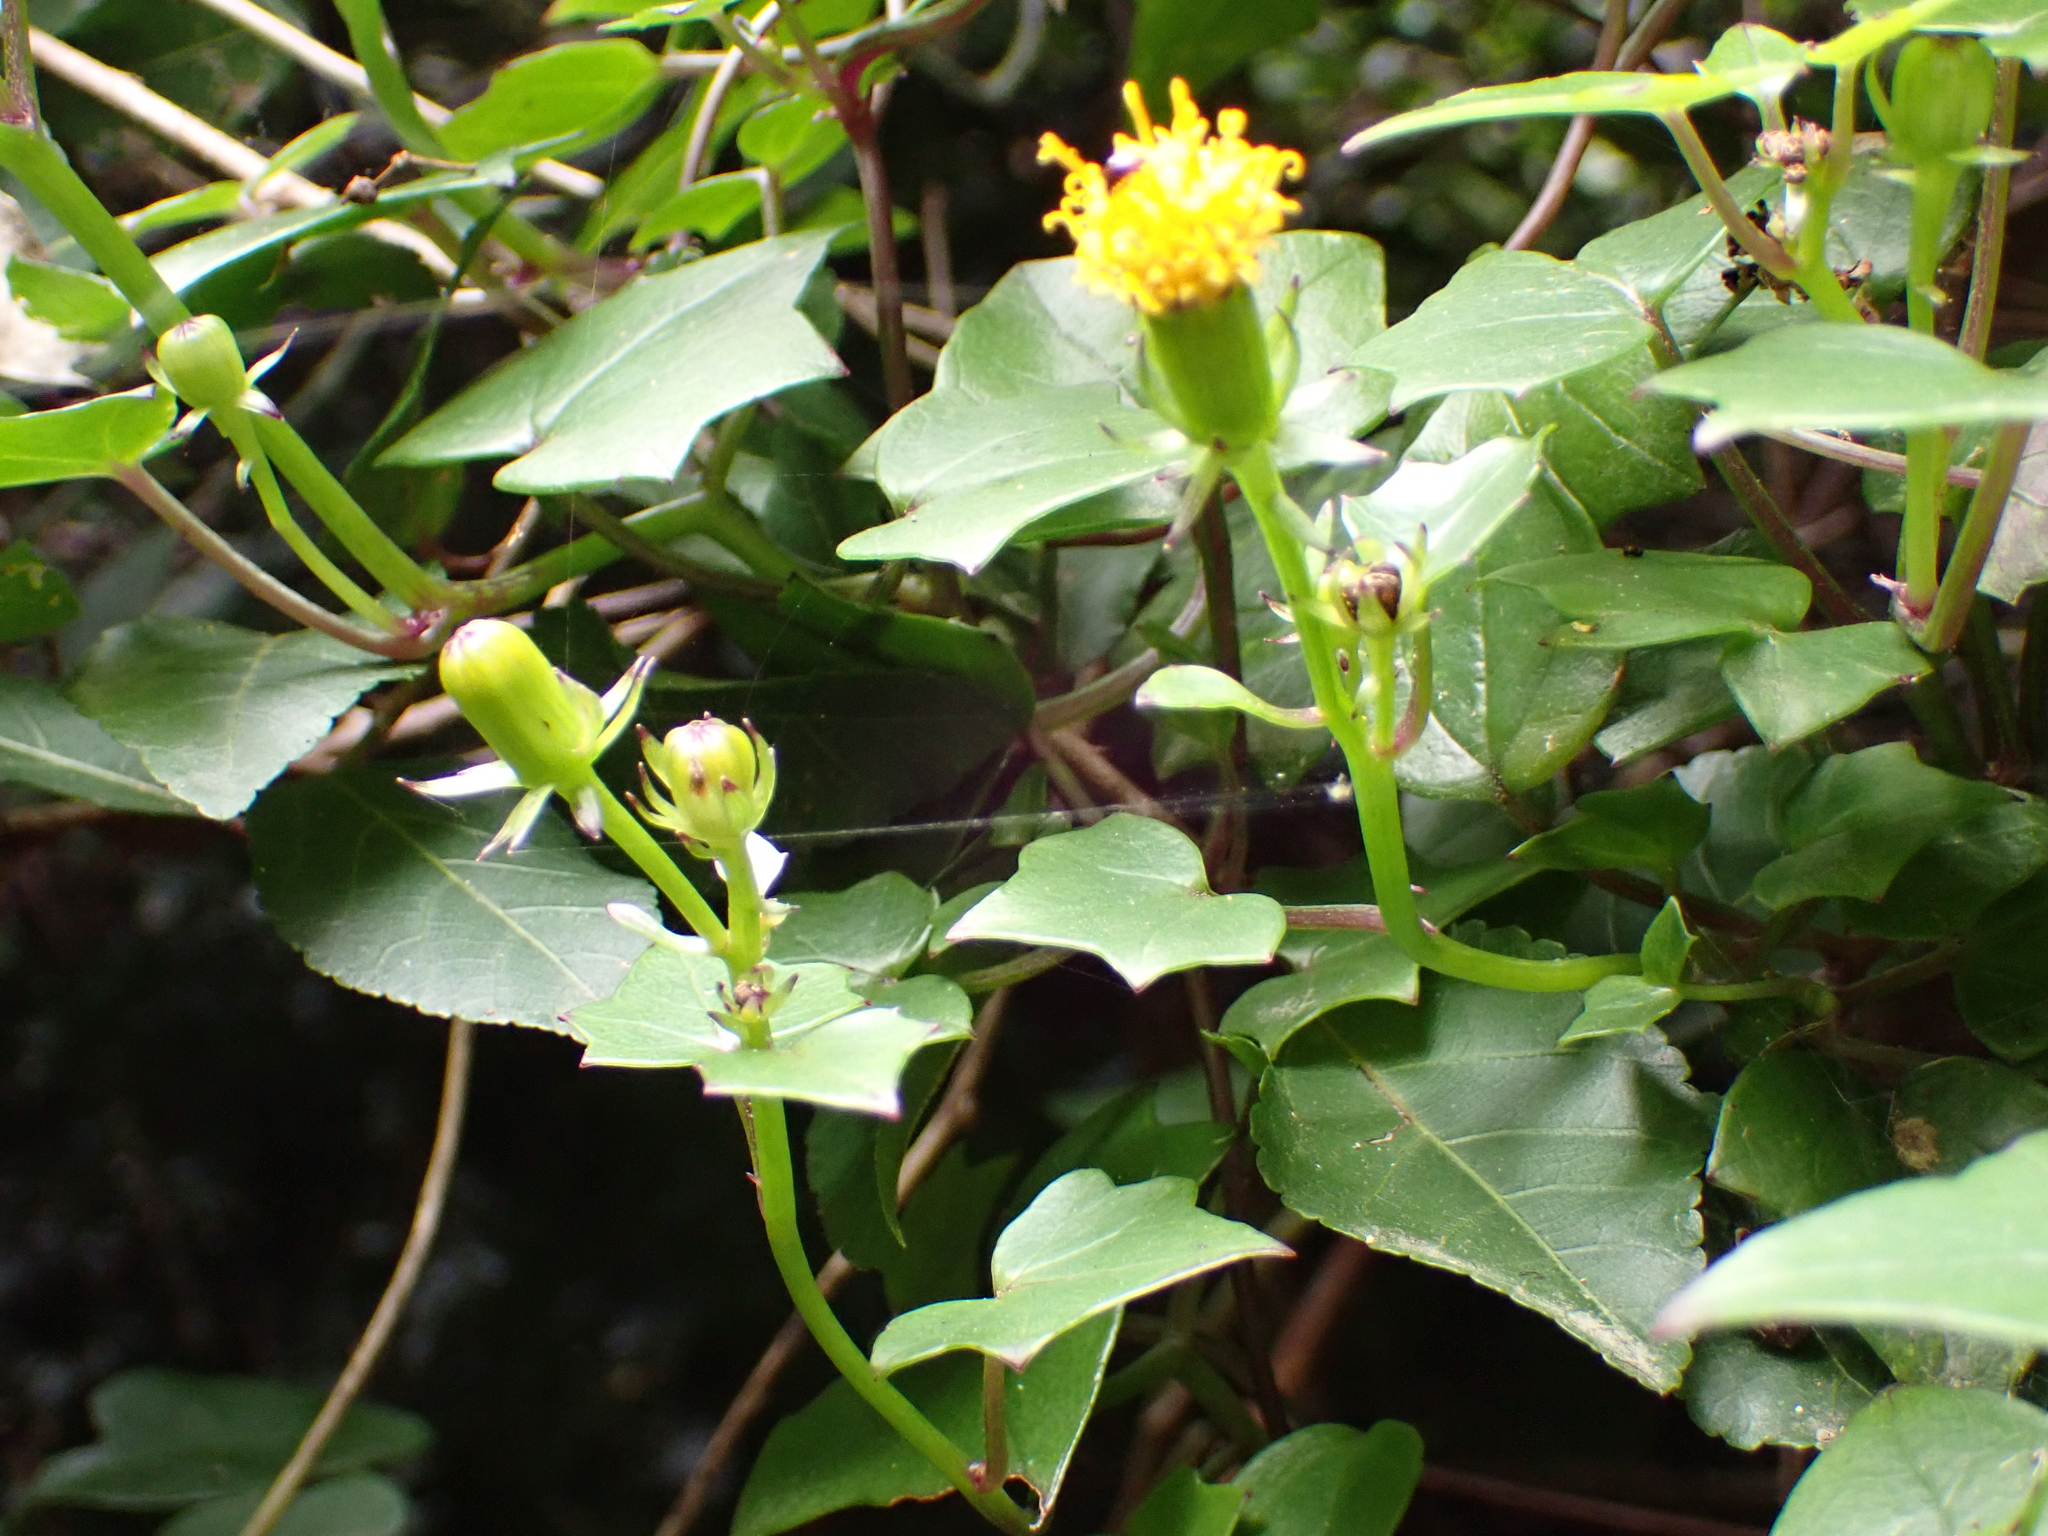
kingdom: Plantae
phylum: Tracheophyta
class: Magnoliopsida
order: Asterales
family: Asteraceae
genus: Senecio
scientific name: Senecio macroglossus
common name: Natal-ivy
